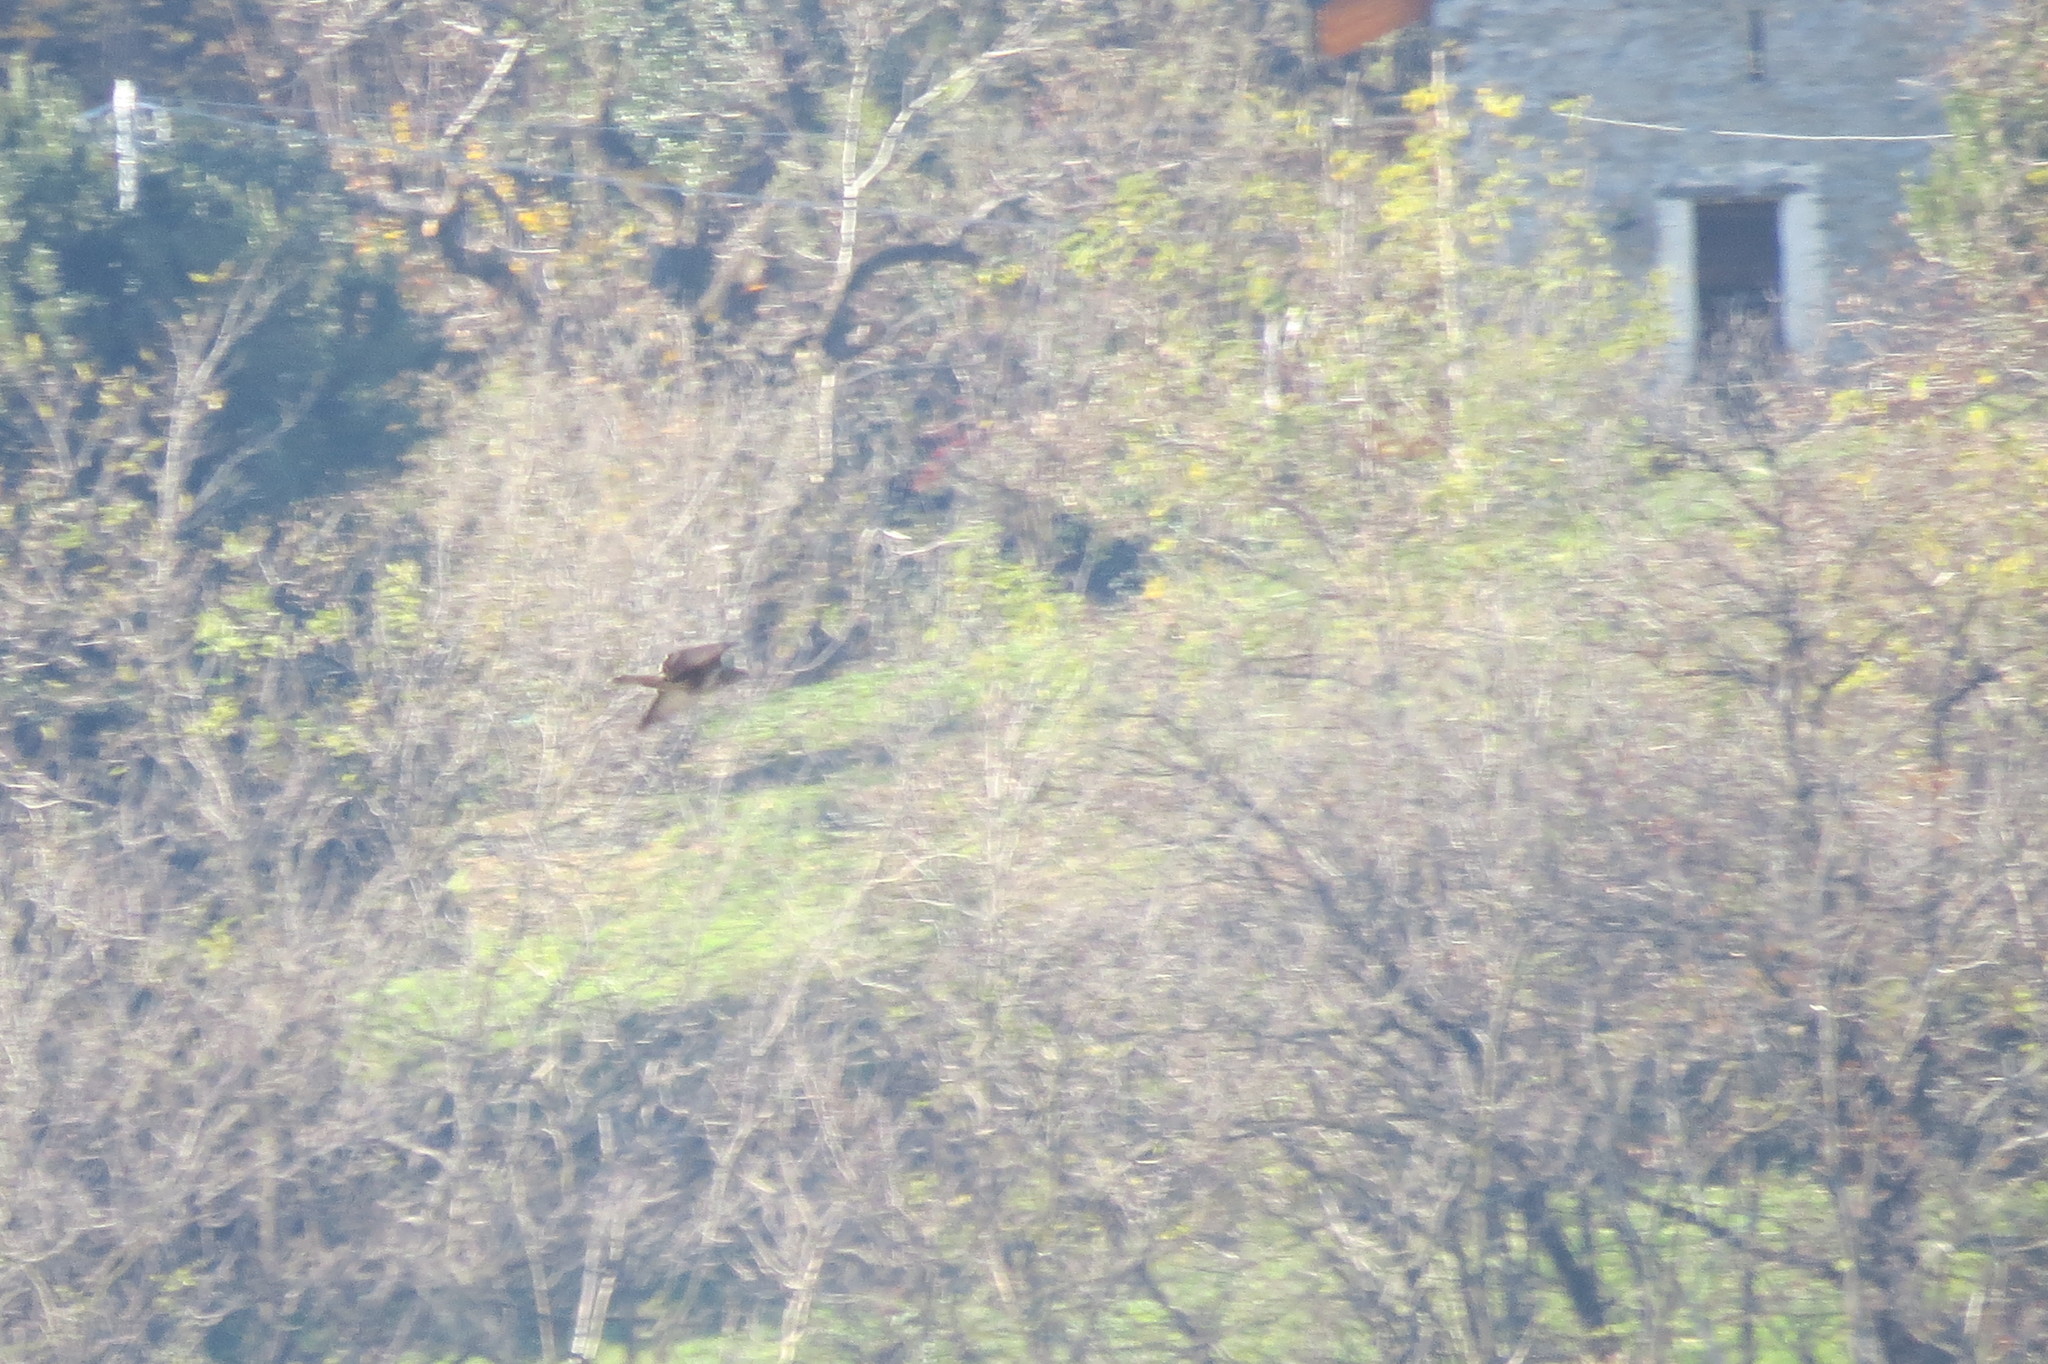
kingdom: Animalia
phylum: Chordata
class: Aves
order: Accipitriformes
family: Accipitridae
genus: Buteo
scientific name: Buteo buteo
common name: Common buzzard
